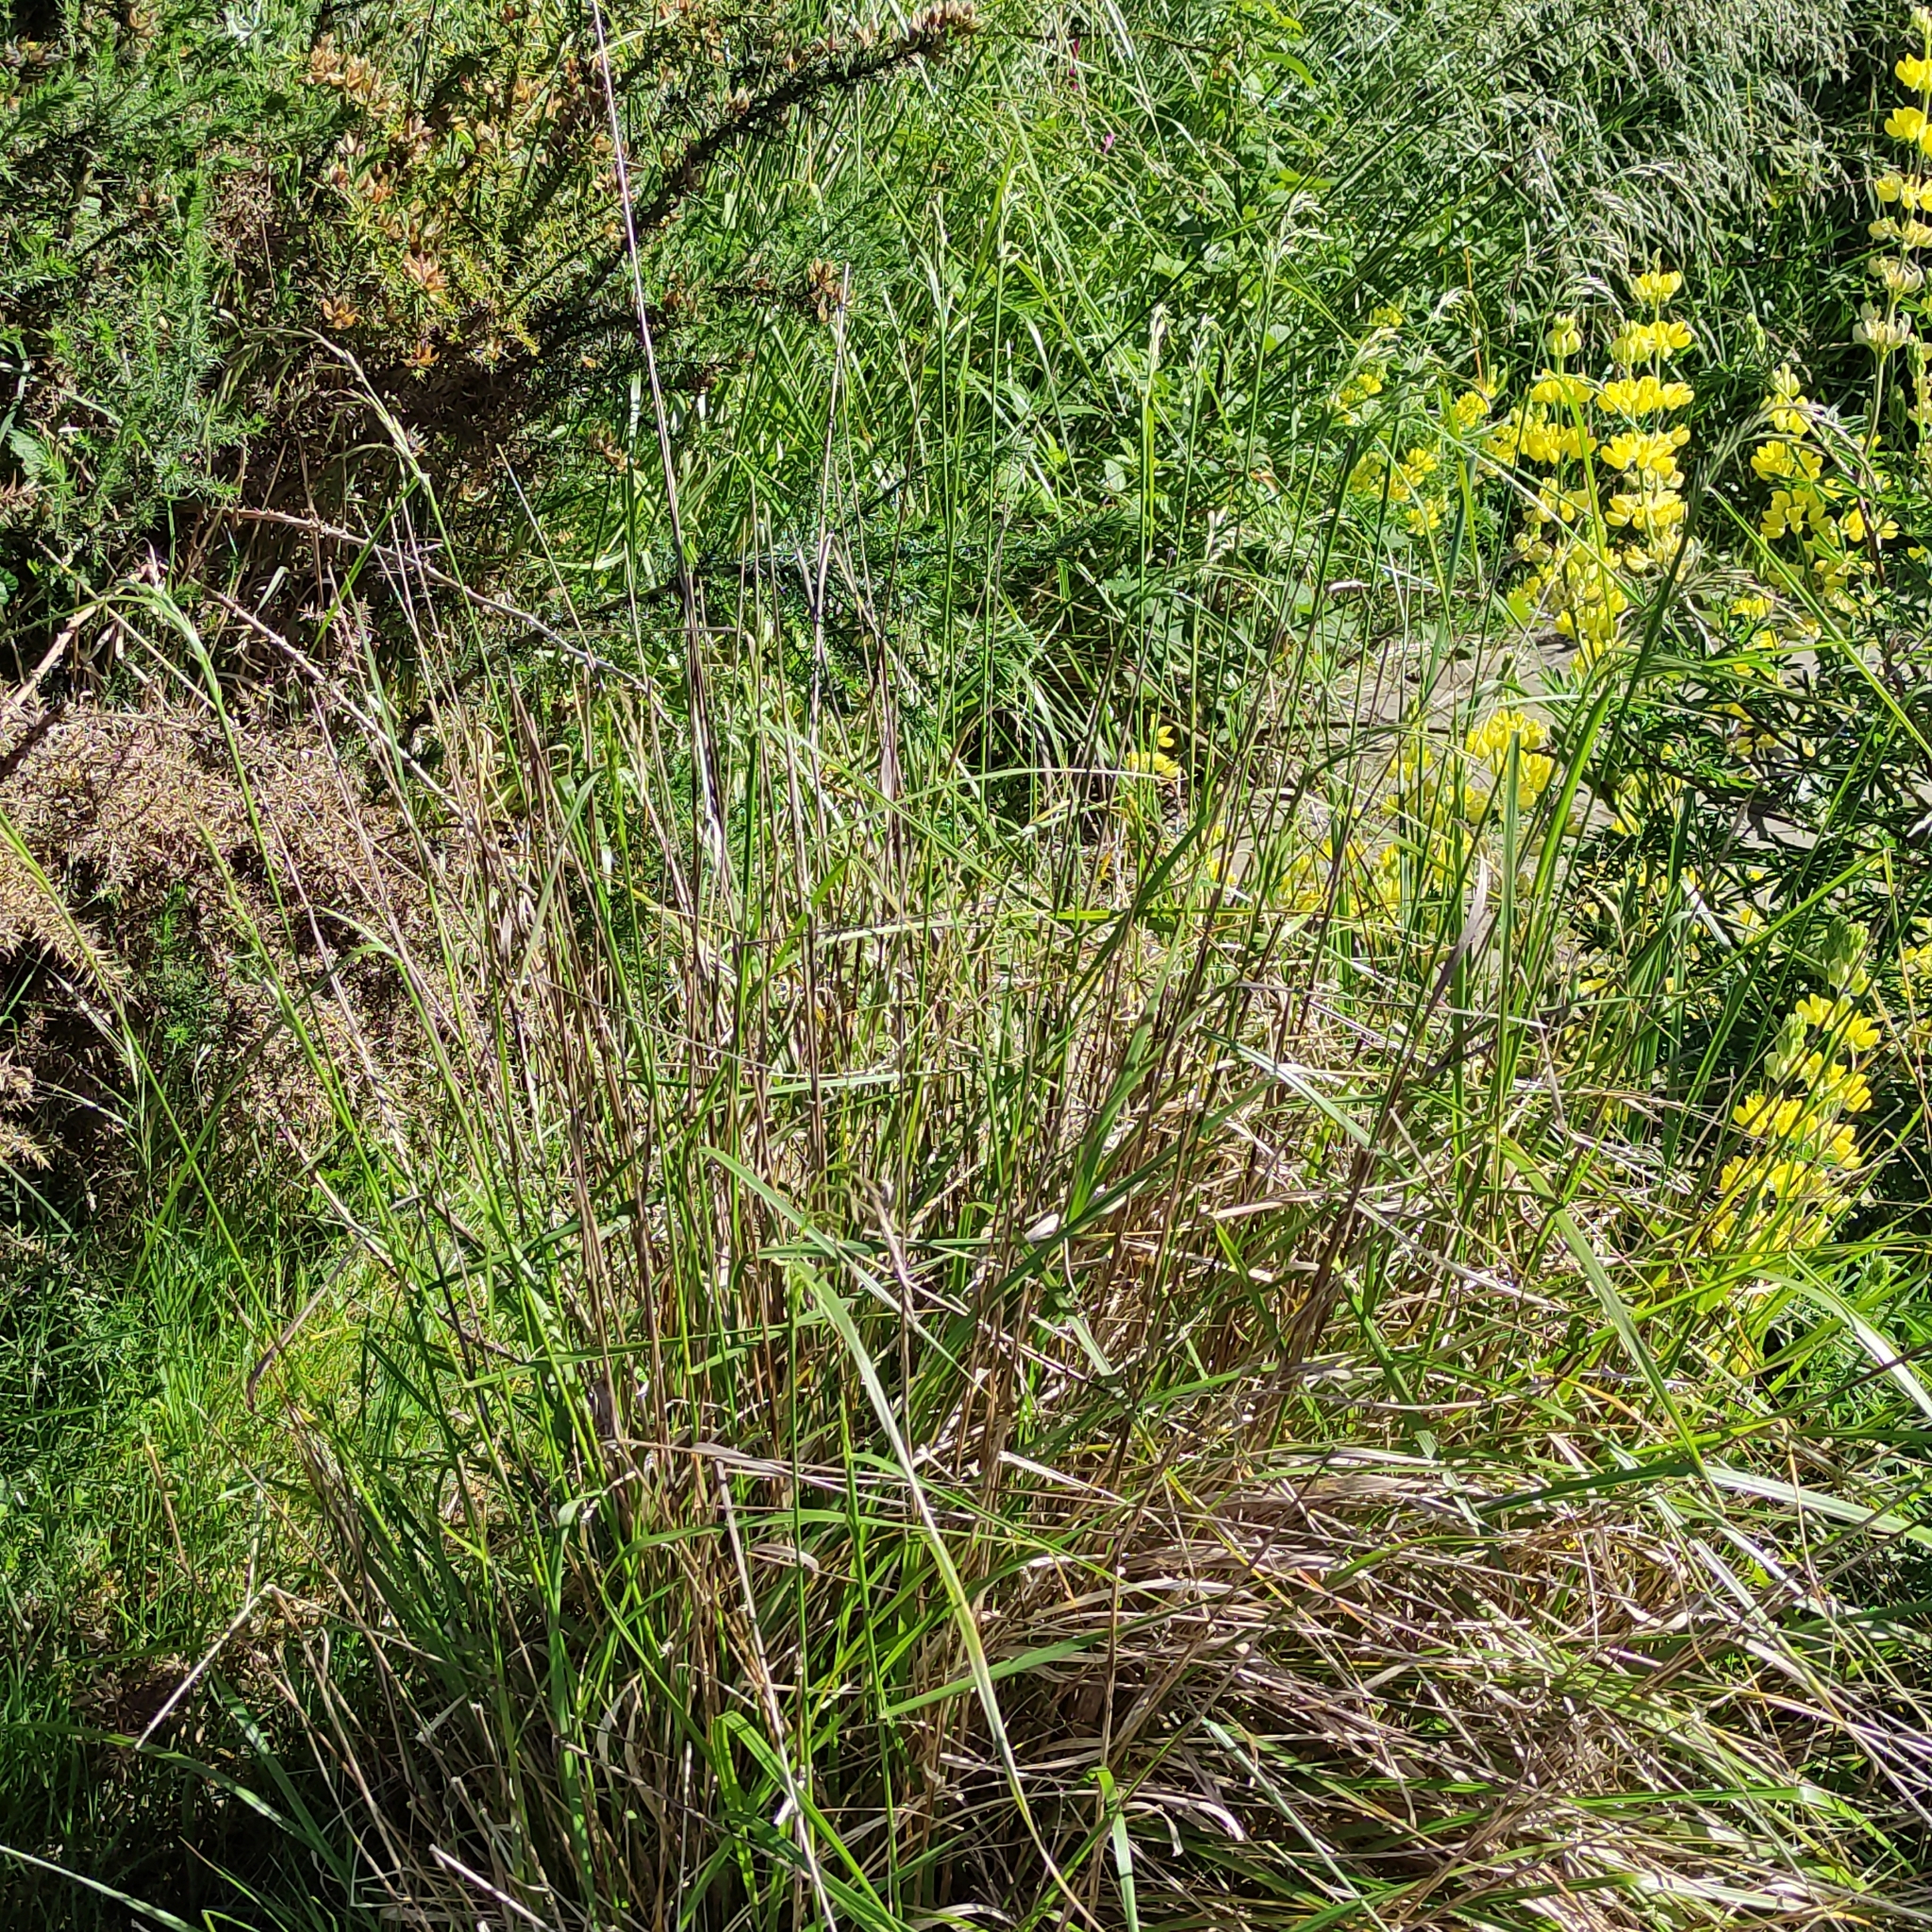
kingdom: Plantae
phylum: Tracheophyta
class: Liliopsida
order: Poales
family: Poaceae
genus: Lolium
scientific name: Lolium arundinaceum
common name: Reed fescue
